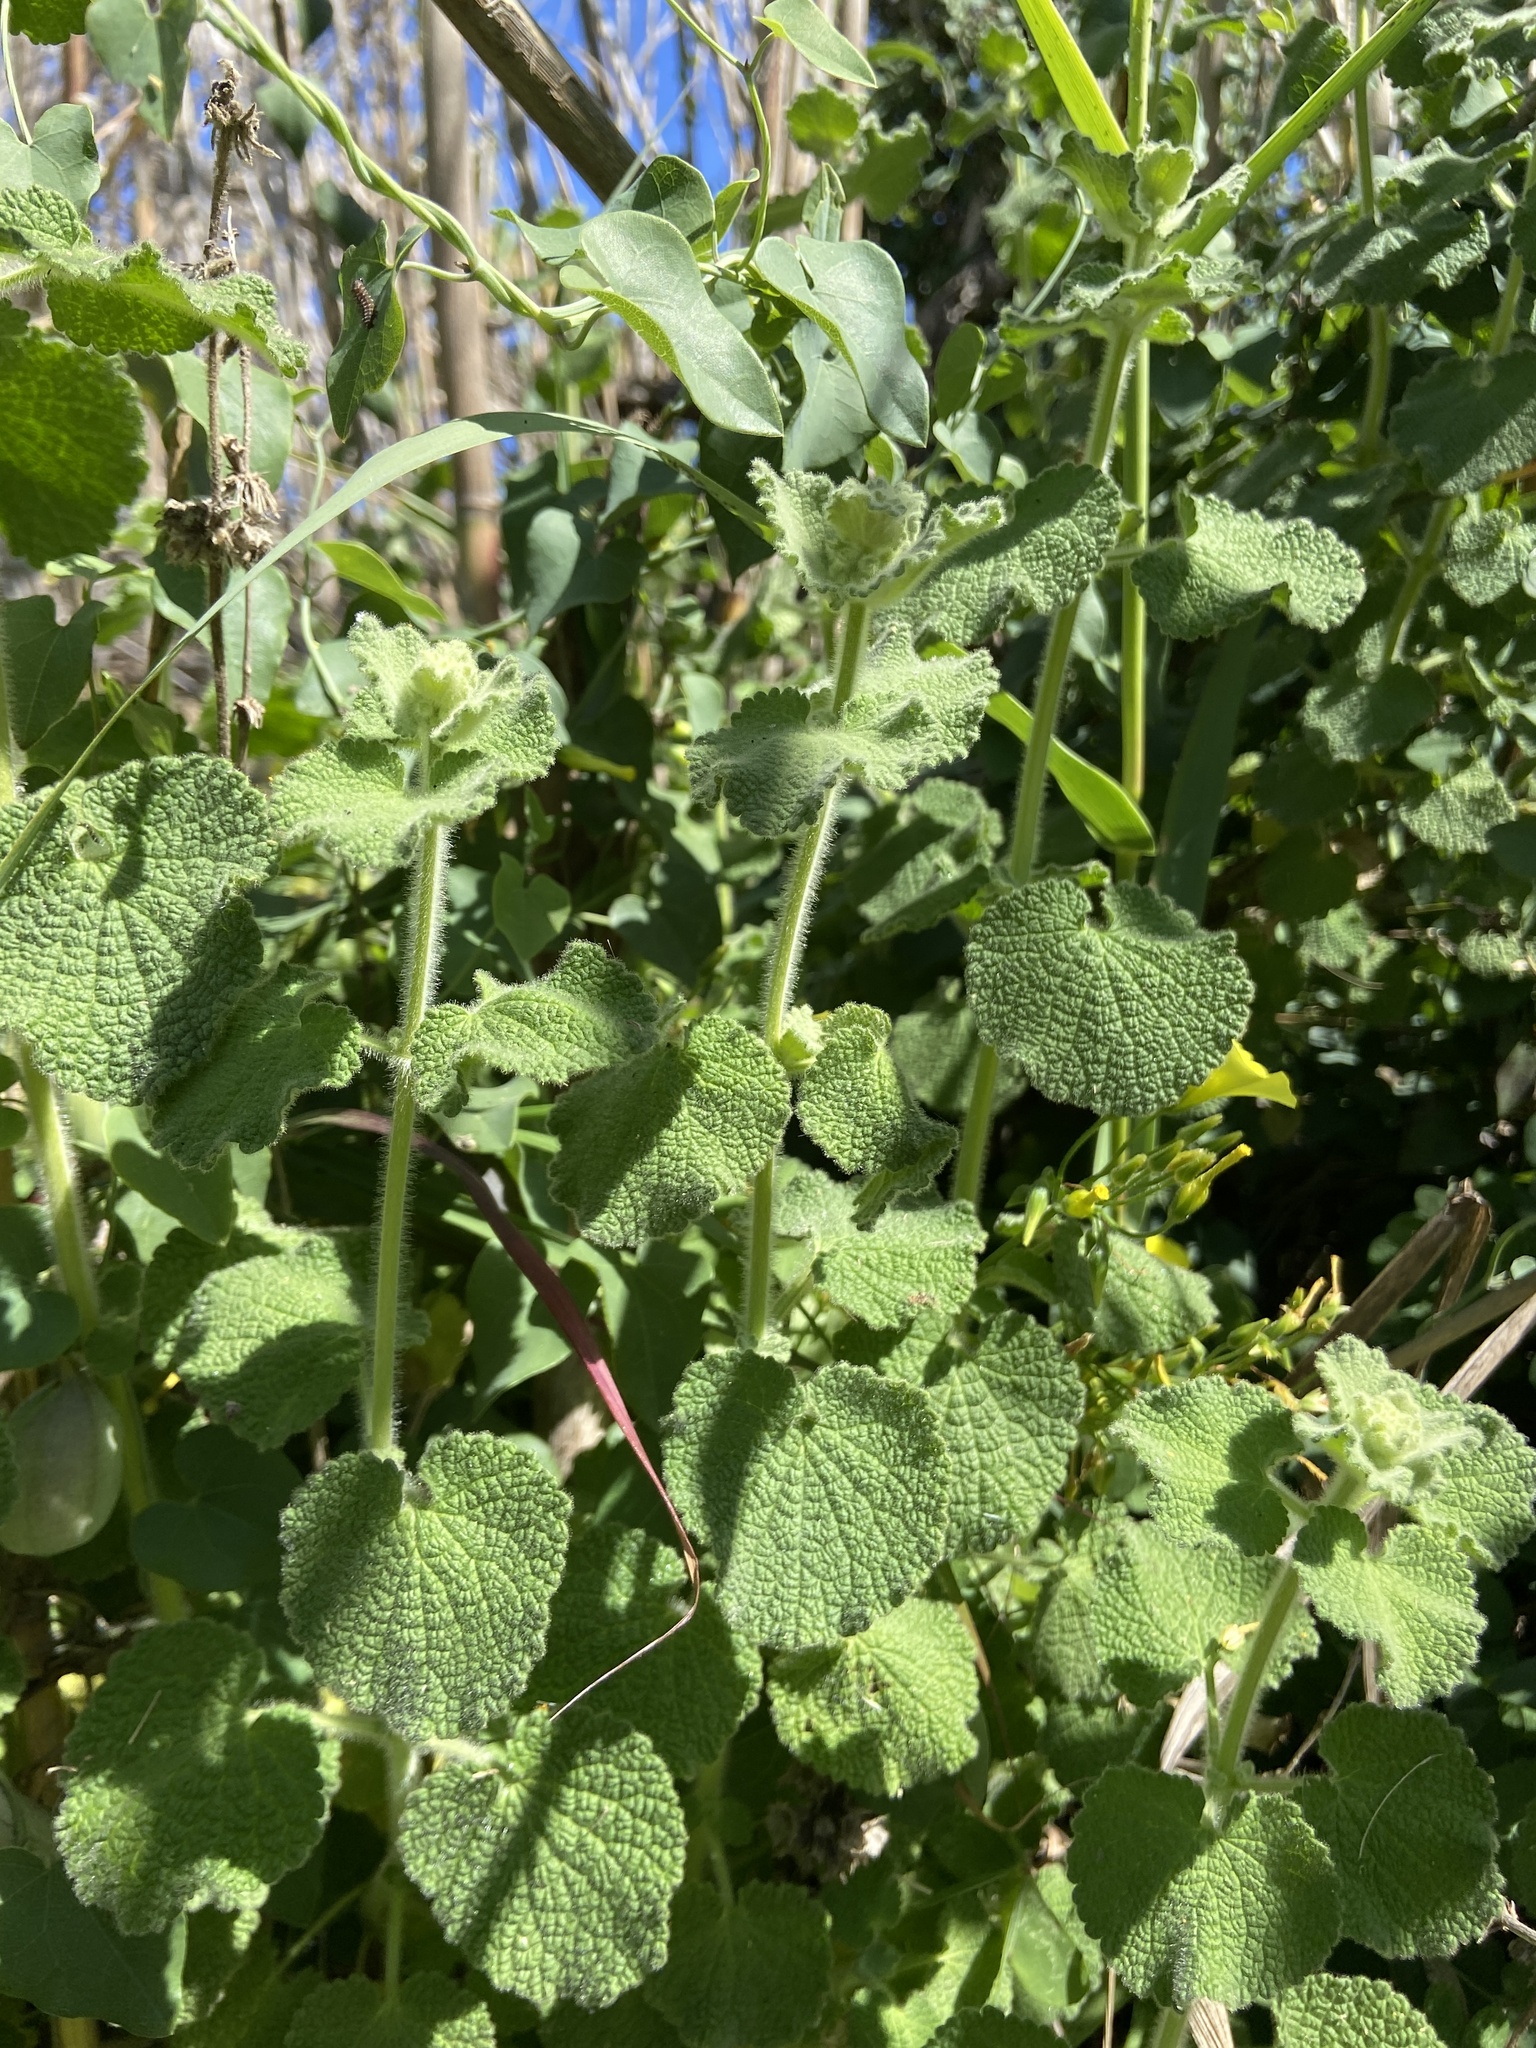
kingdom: Plantae
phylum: Tracheophyta
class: Magnoliopsida
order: Lamiales
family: Lamiaceae
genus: Pseudodictamnus
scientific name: Pseudodictamnus hirsutus
